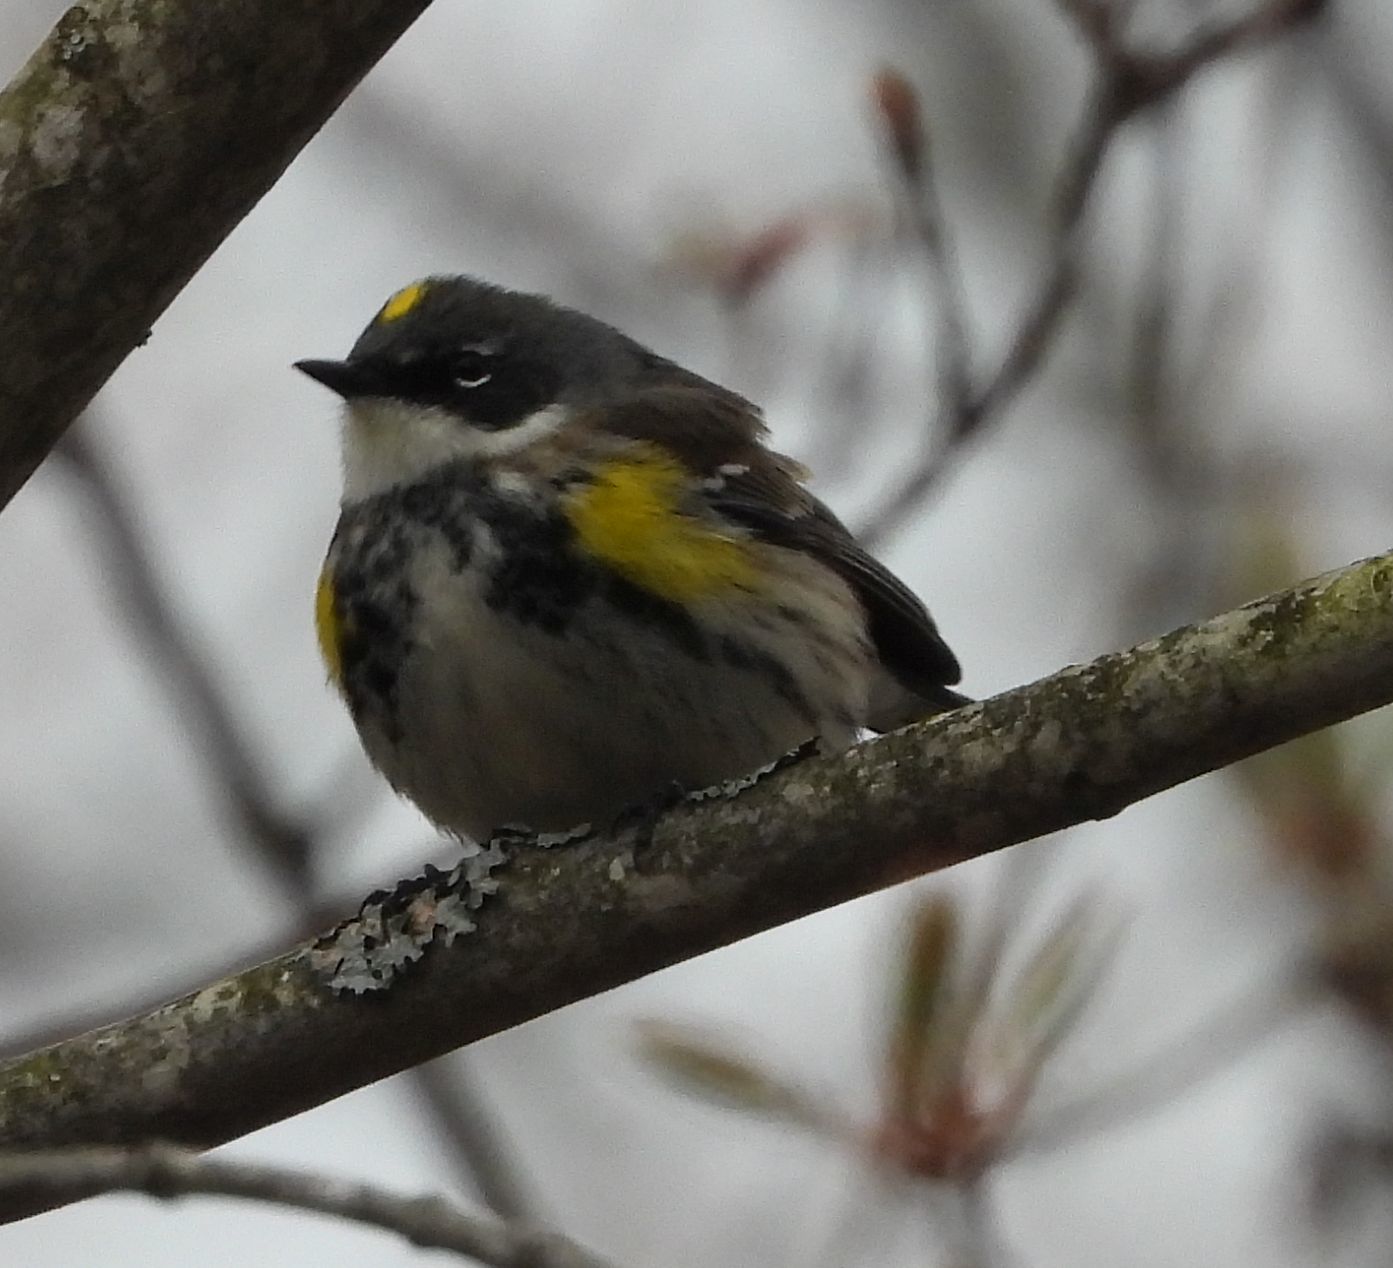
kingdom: Animalia
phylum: Chordata
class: Aves
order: Passeriformes
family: Parulidae
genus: Setophaga
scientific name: Setophaga coronata
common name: Myrtle warbler
